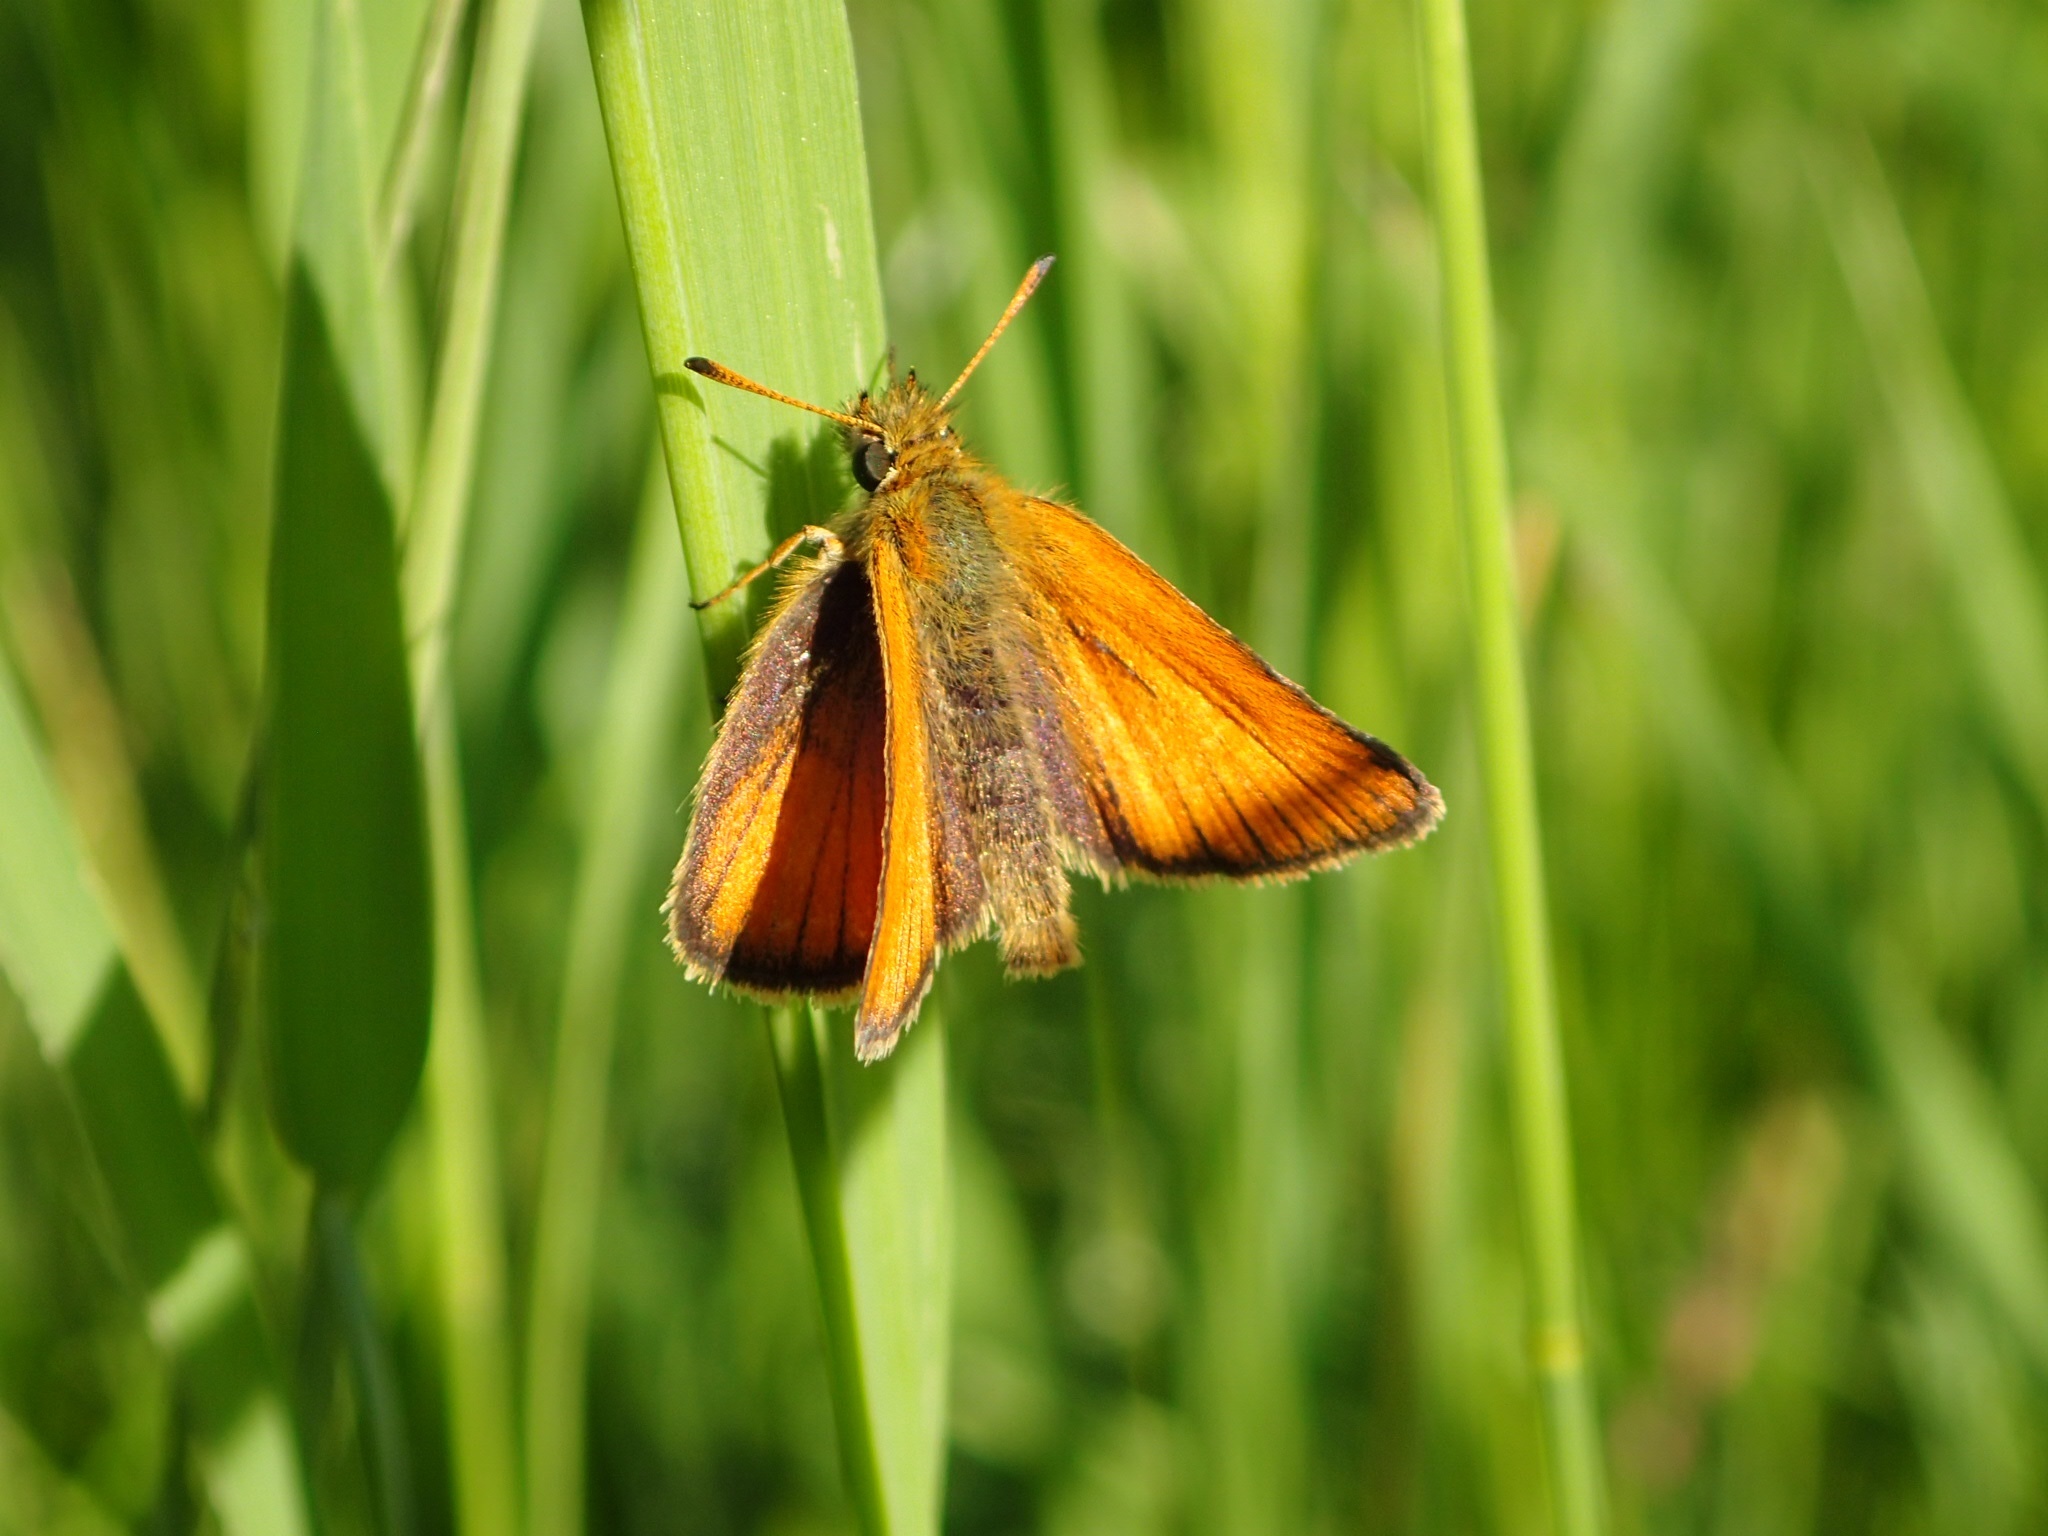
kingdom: Animalia
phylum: Arthropoda
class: Insecta
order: Lepidoptera
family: Hesperiidae
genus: Thymelicus
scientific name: Thymelicus lineola
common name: Essex skipper
